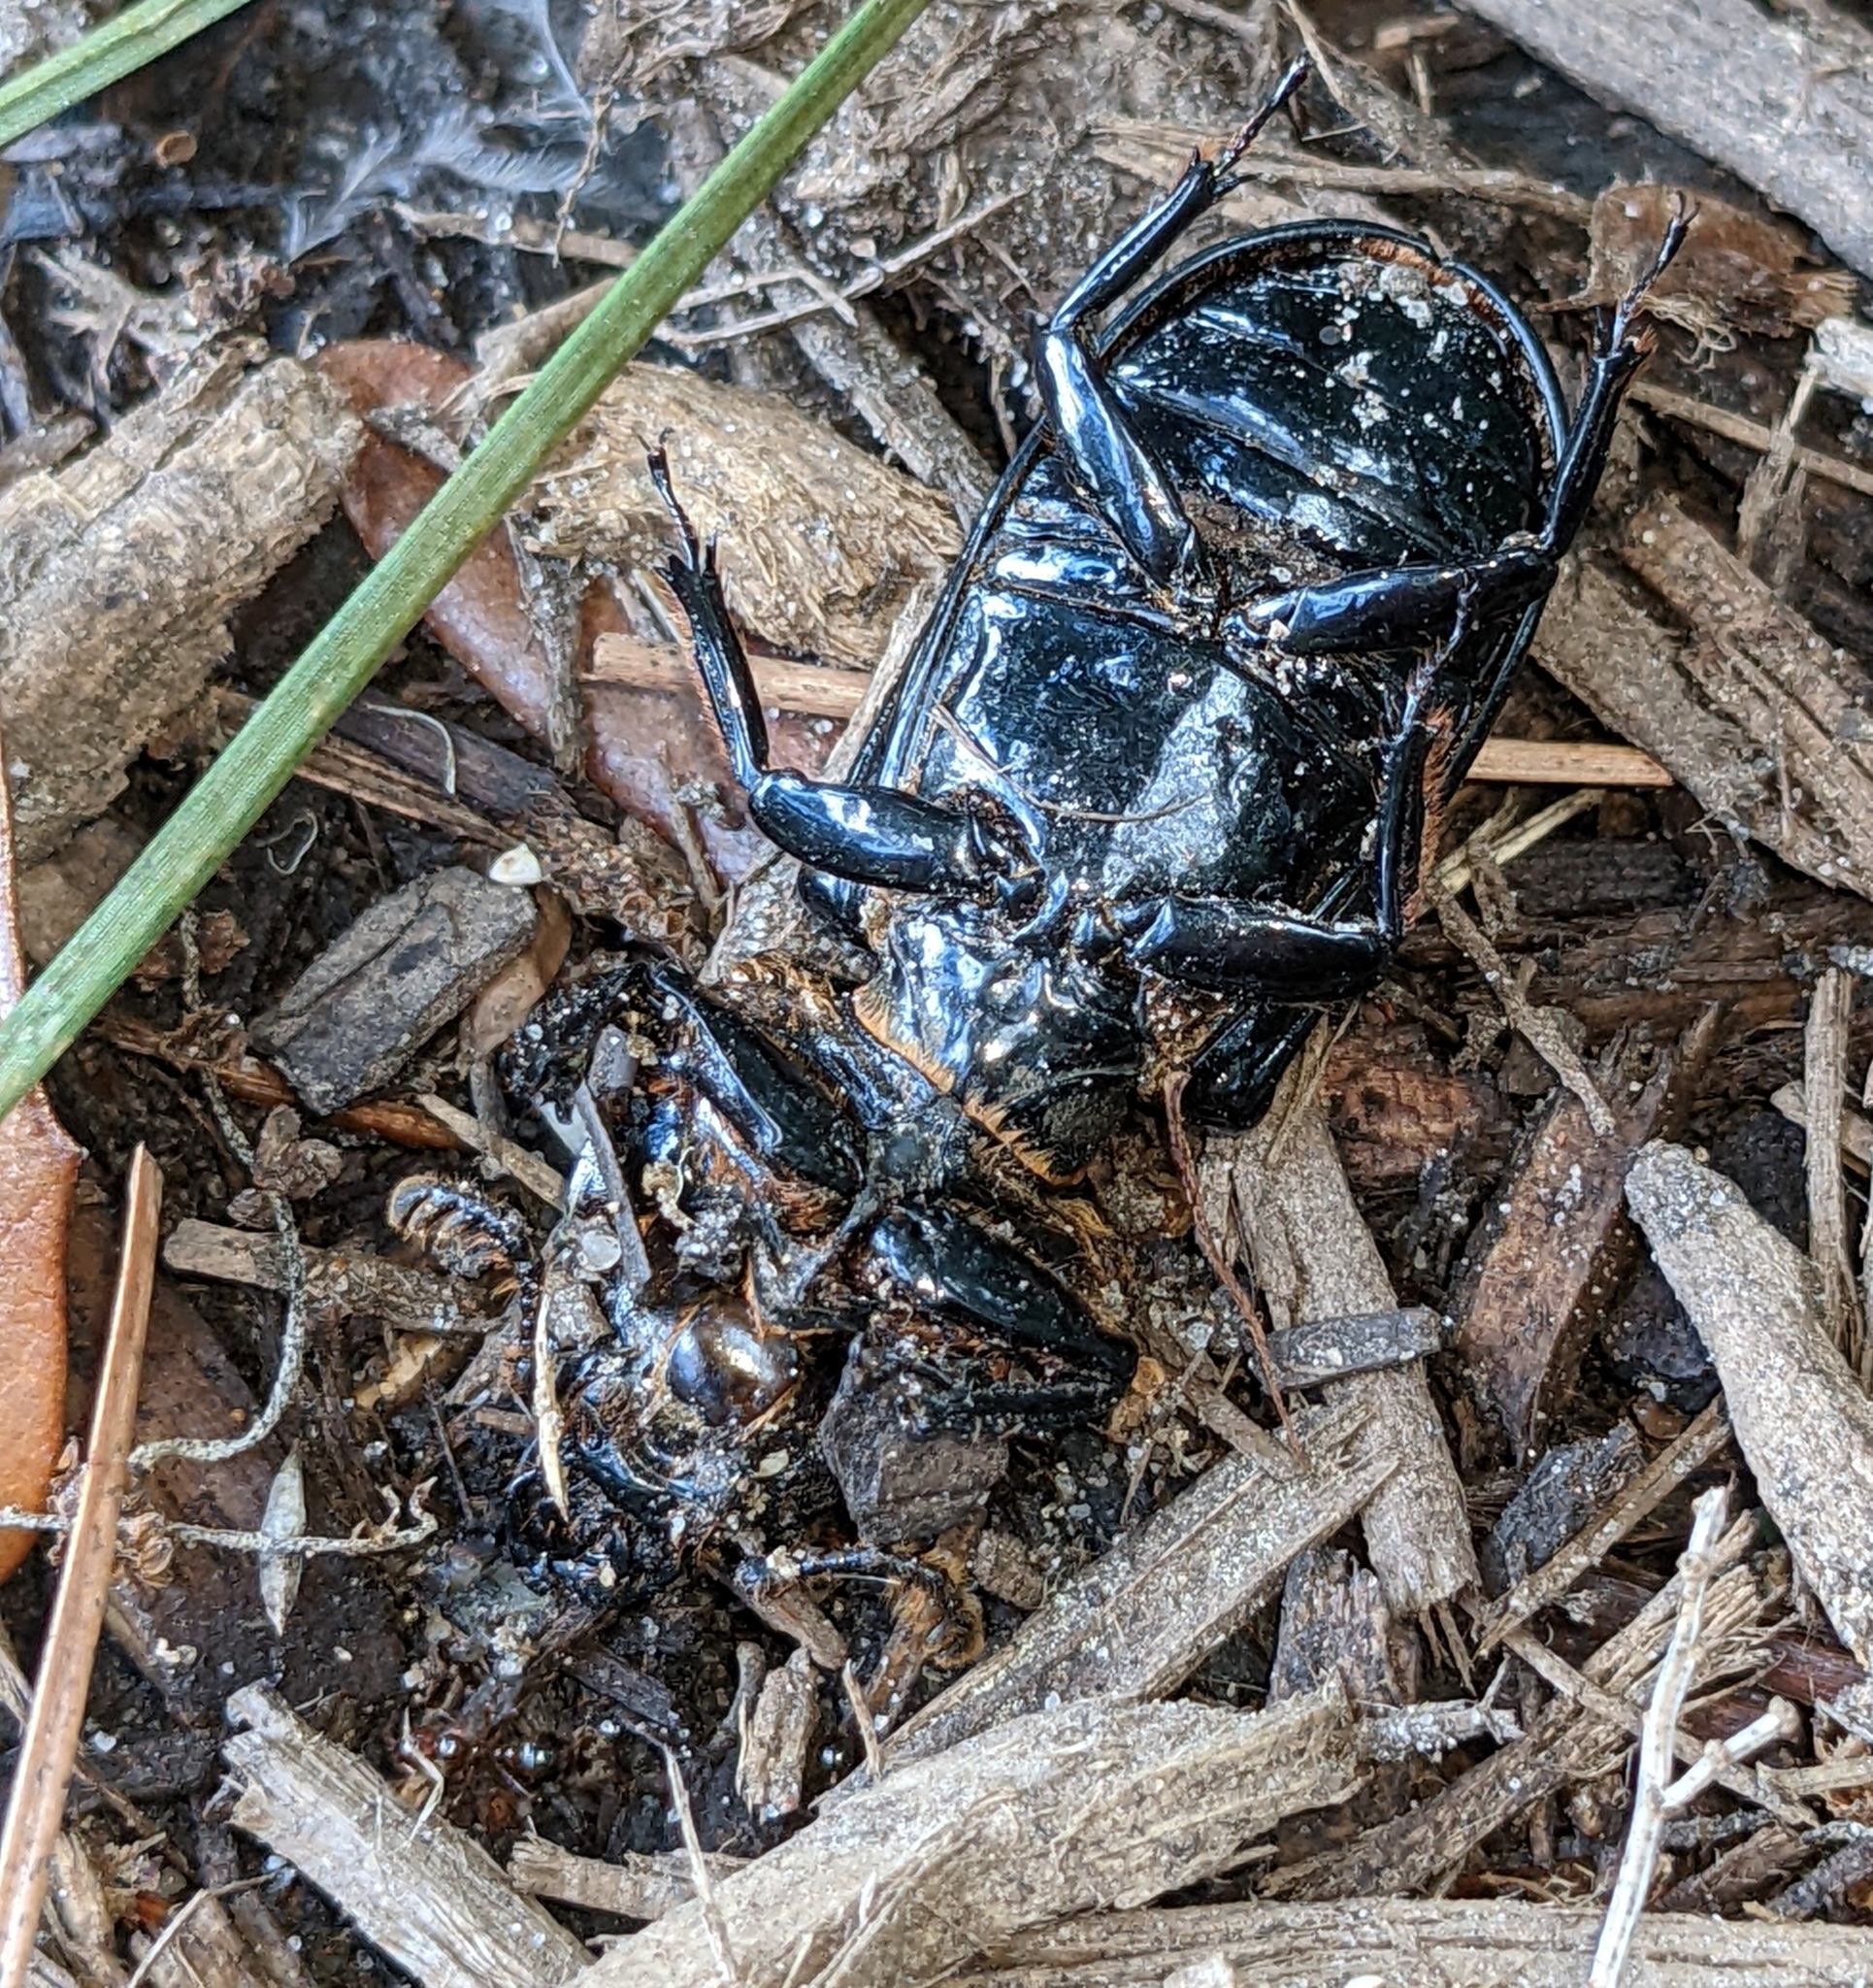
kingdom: Animalia
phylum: Arthropoda
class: Insecta
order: Coleoptera
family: Passalidae
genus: Odontotaenius
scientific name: Odontotaenius disjunctus
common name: Patent leather beetle
